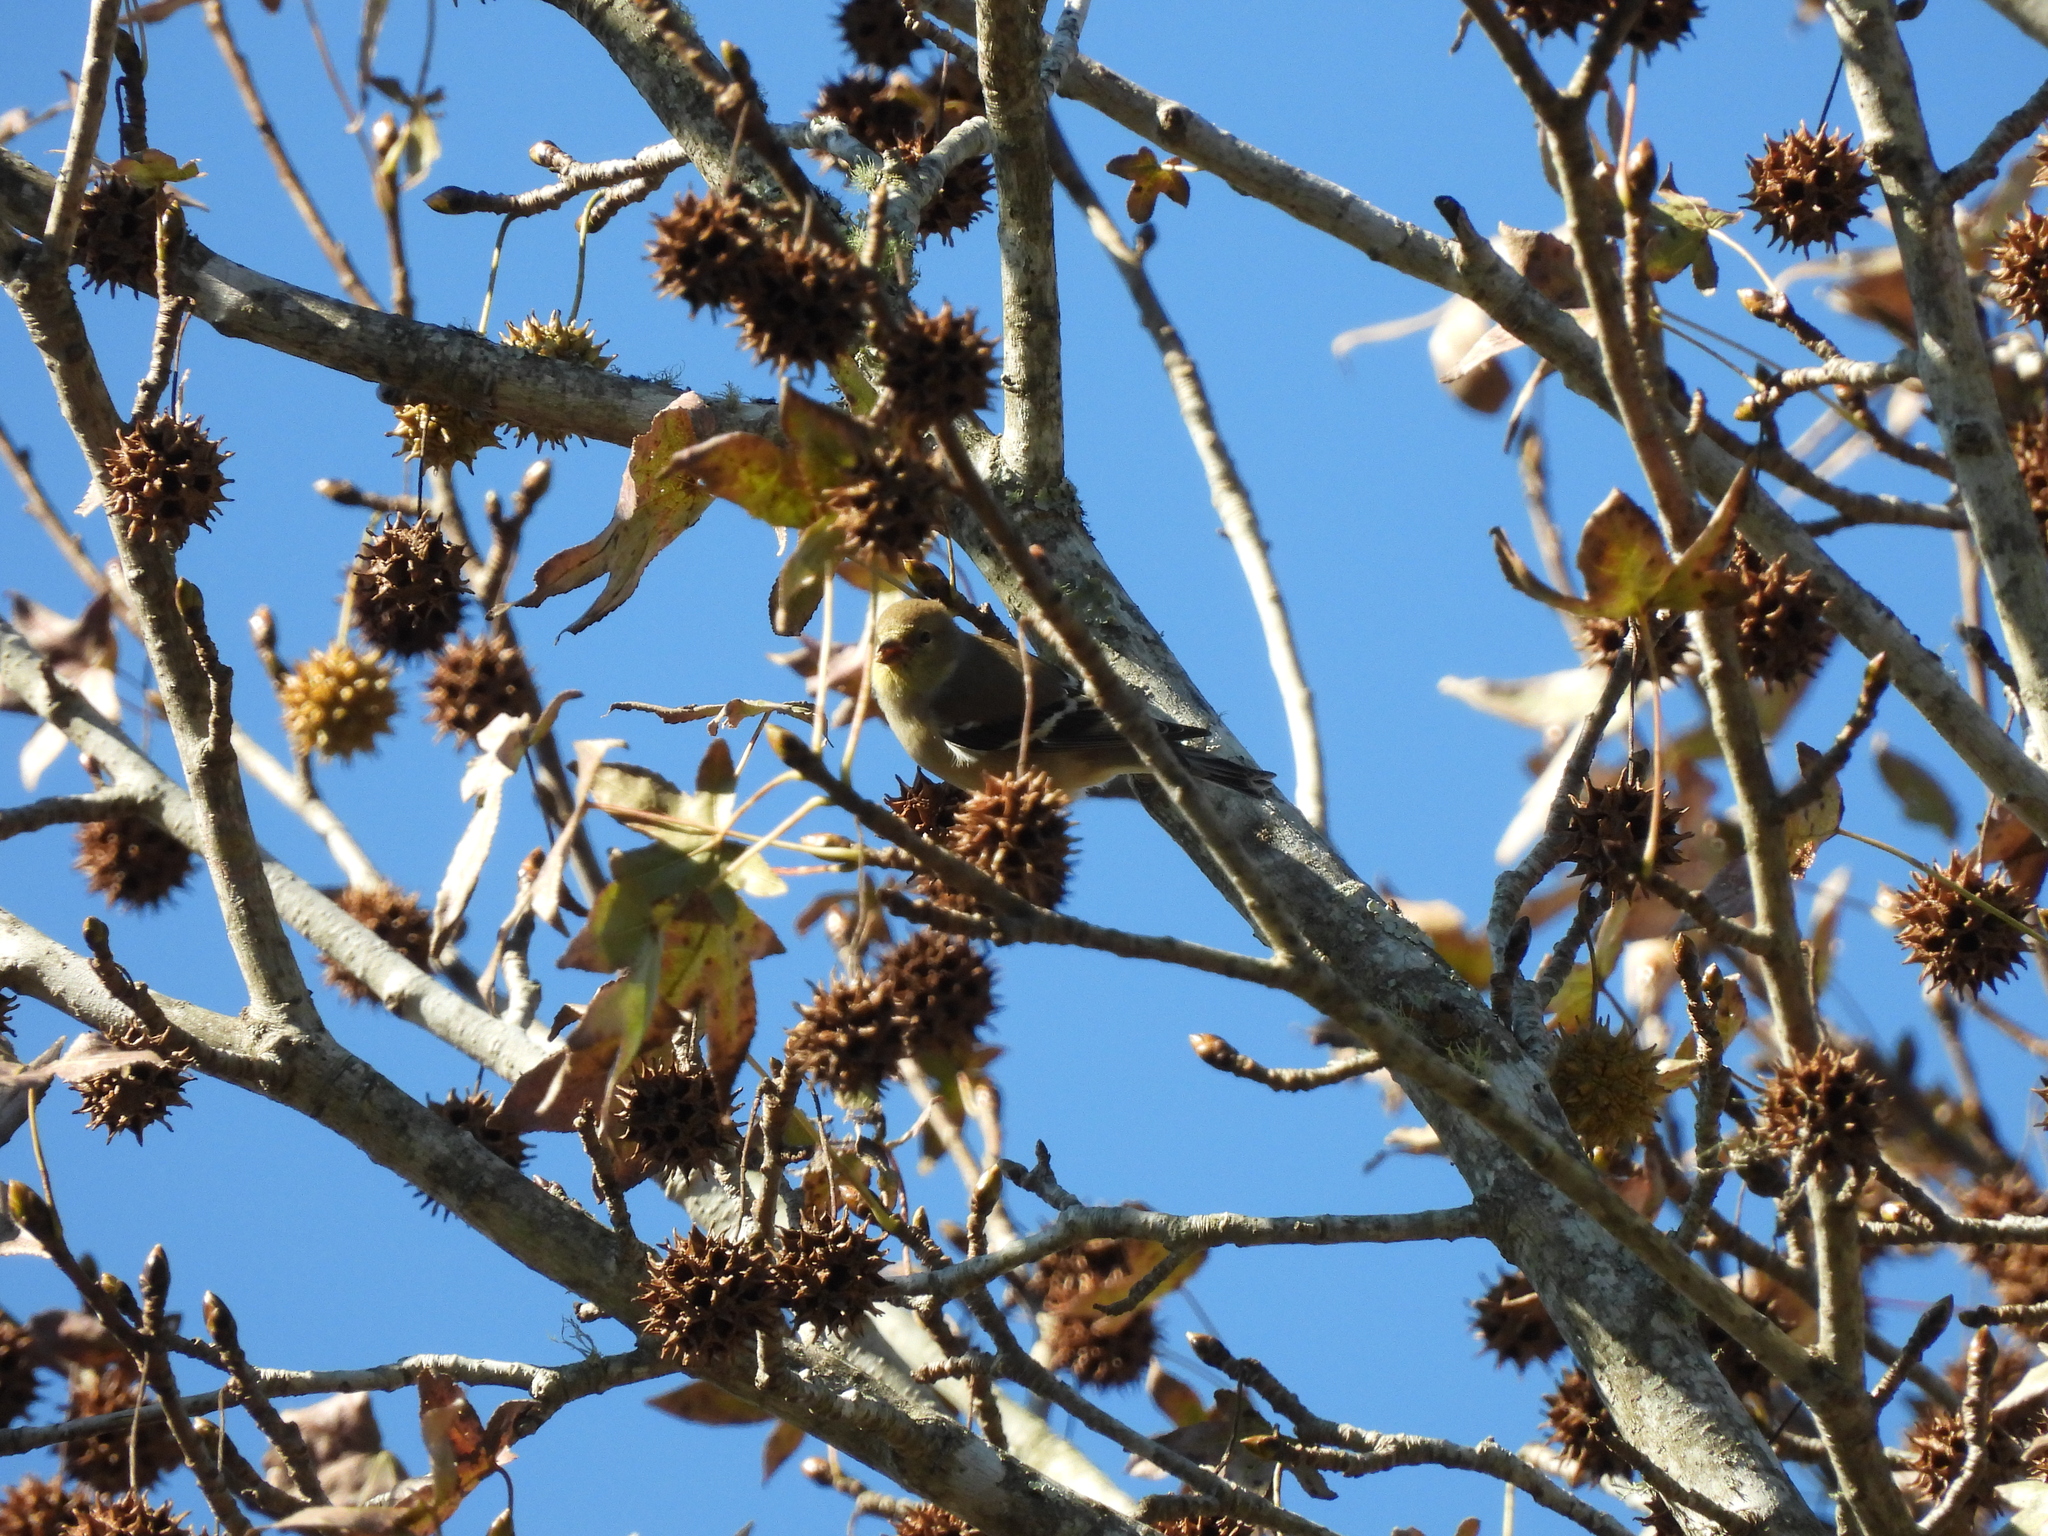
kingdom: Animalia
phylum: Chordata
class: Aves
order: Passeriformes
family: Fringillidae
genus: Spinus
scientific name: Spinus tristis
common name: American goldfinch
